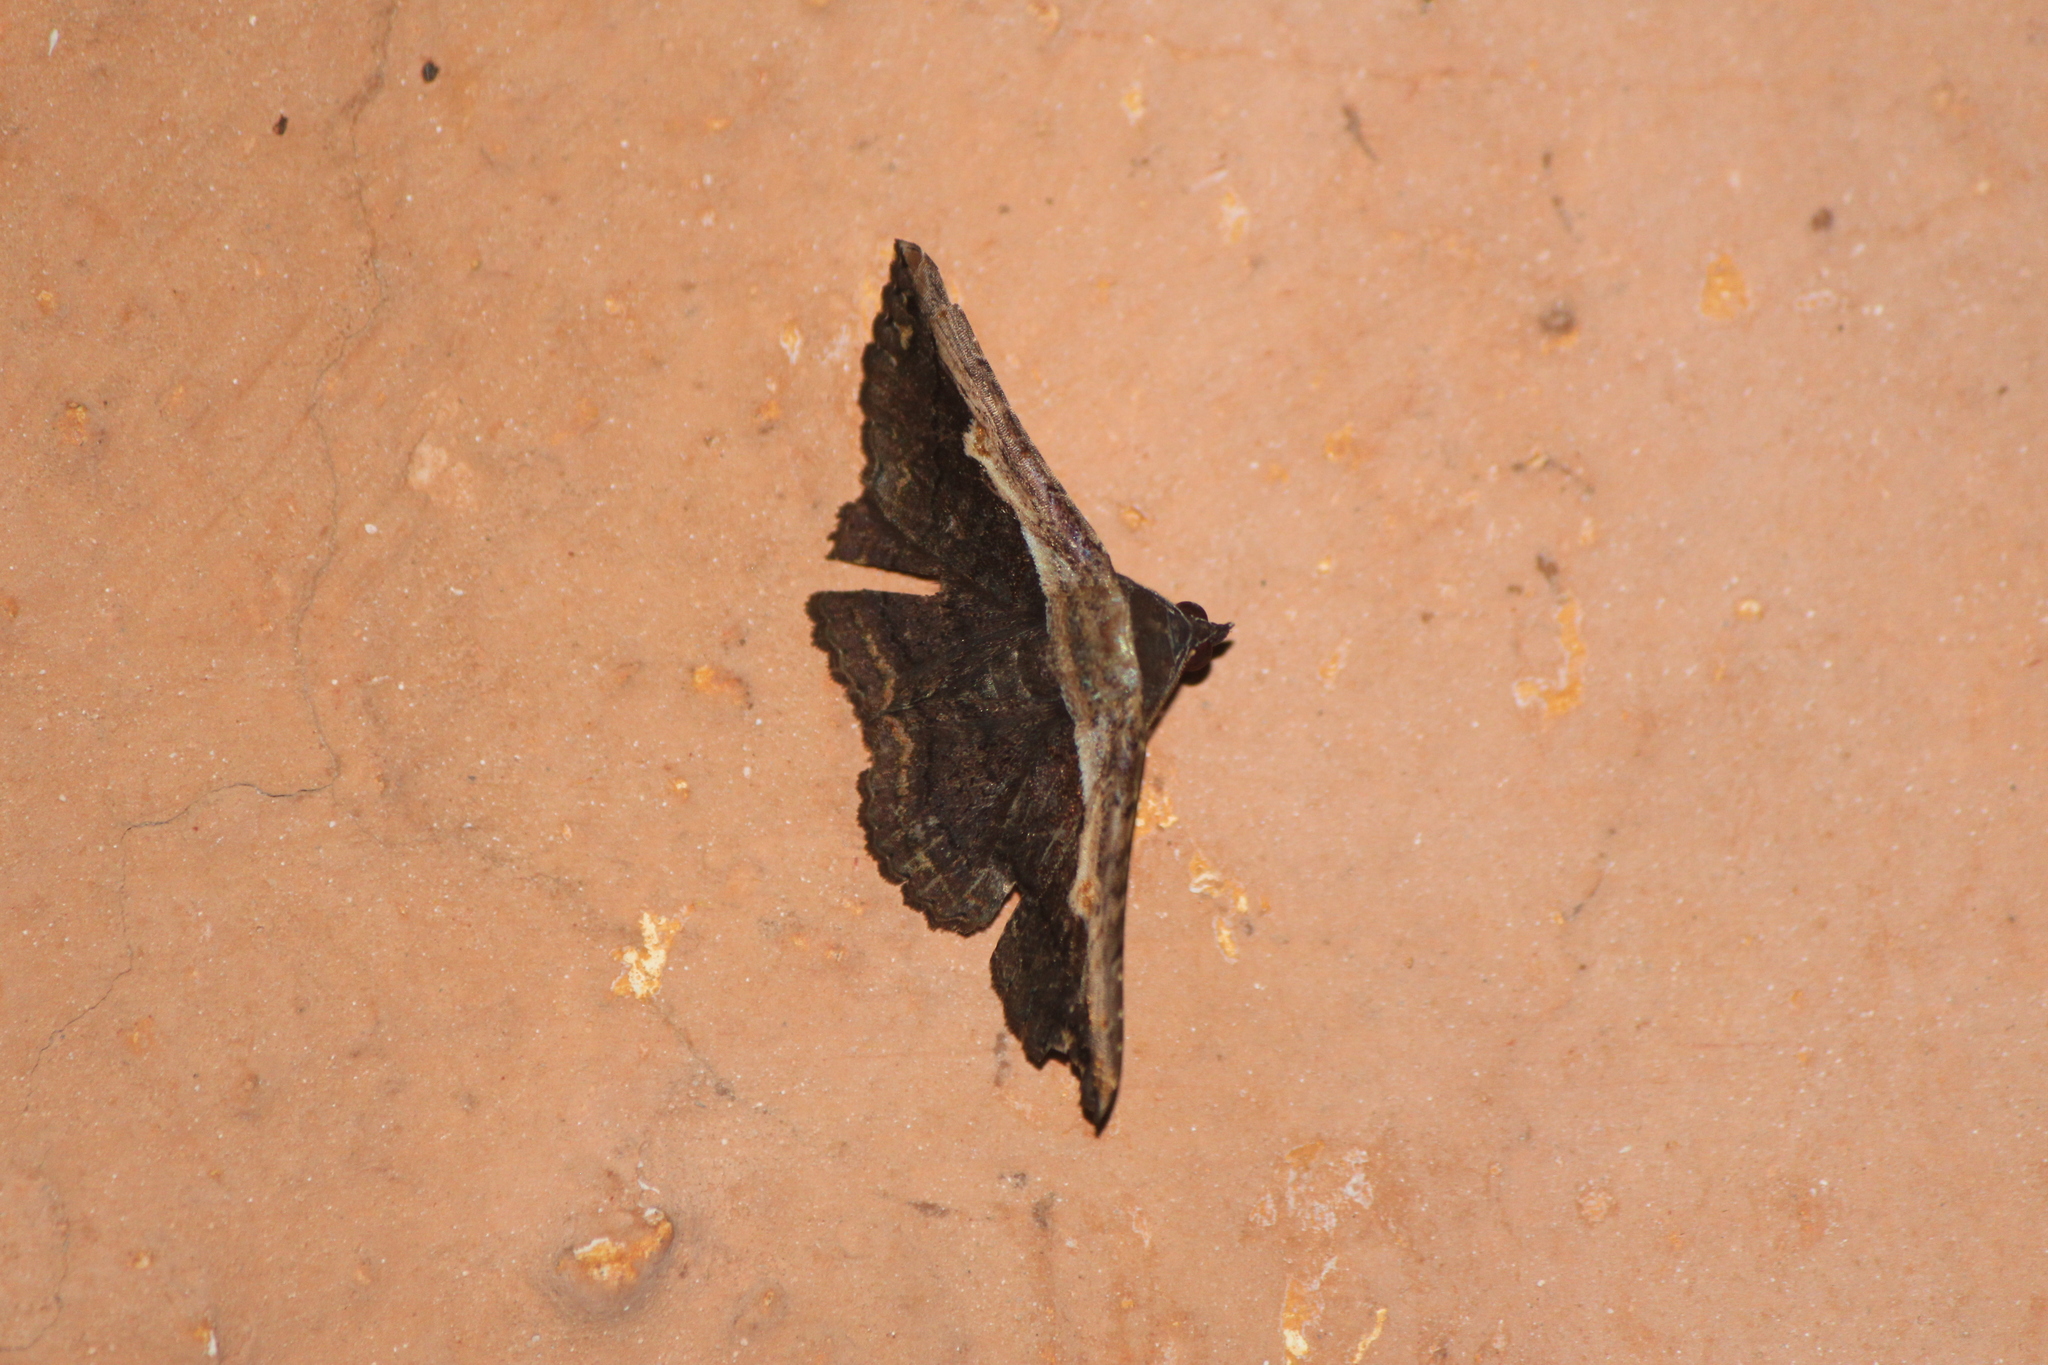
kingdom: Animalia
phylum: Arthropoda
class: Insecta
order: Lepidoptera
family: Erebidae
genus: Selenisa
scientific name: Selenisa sueroides
